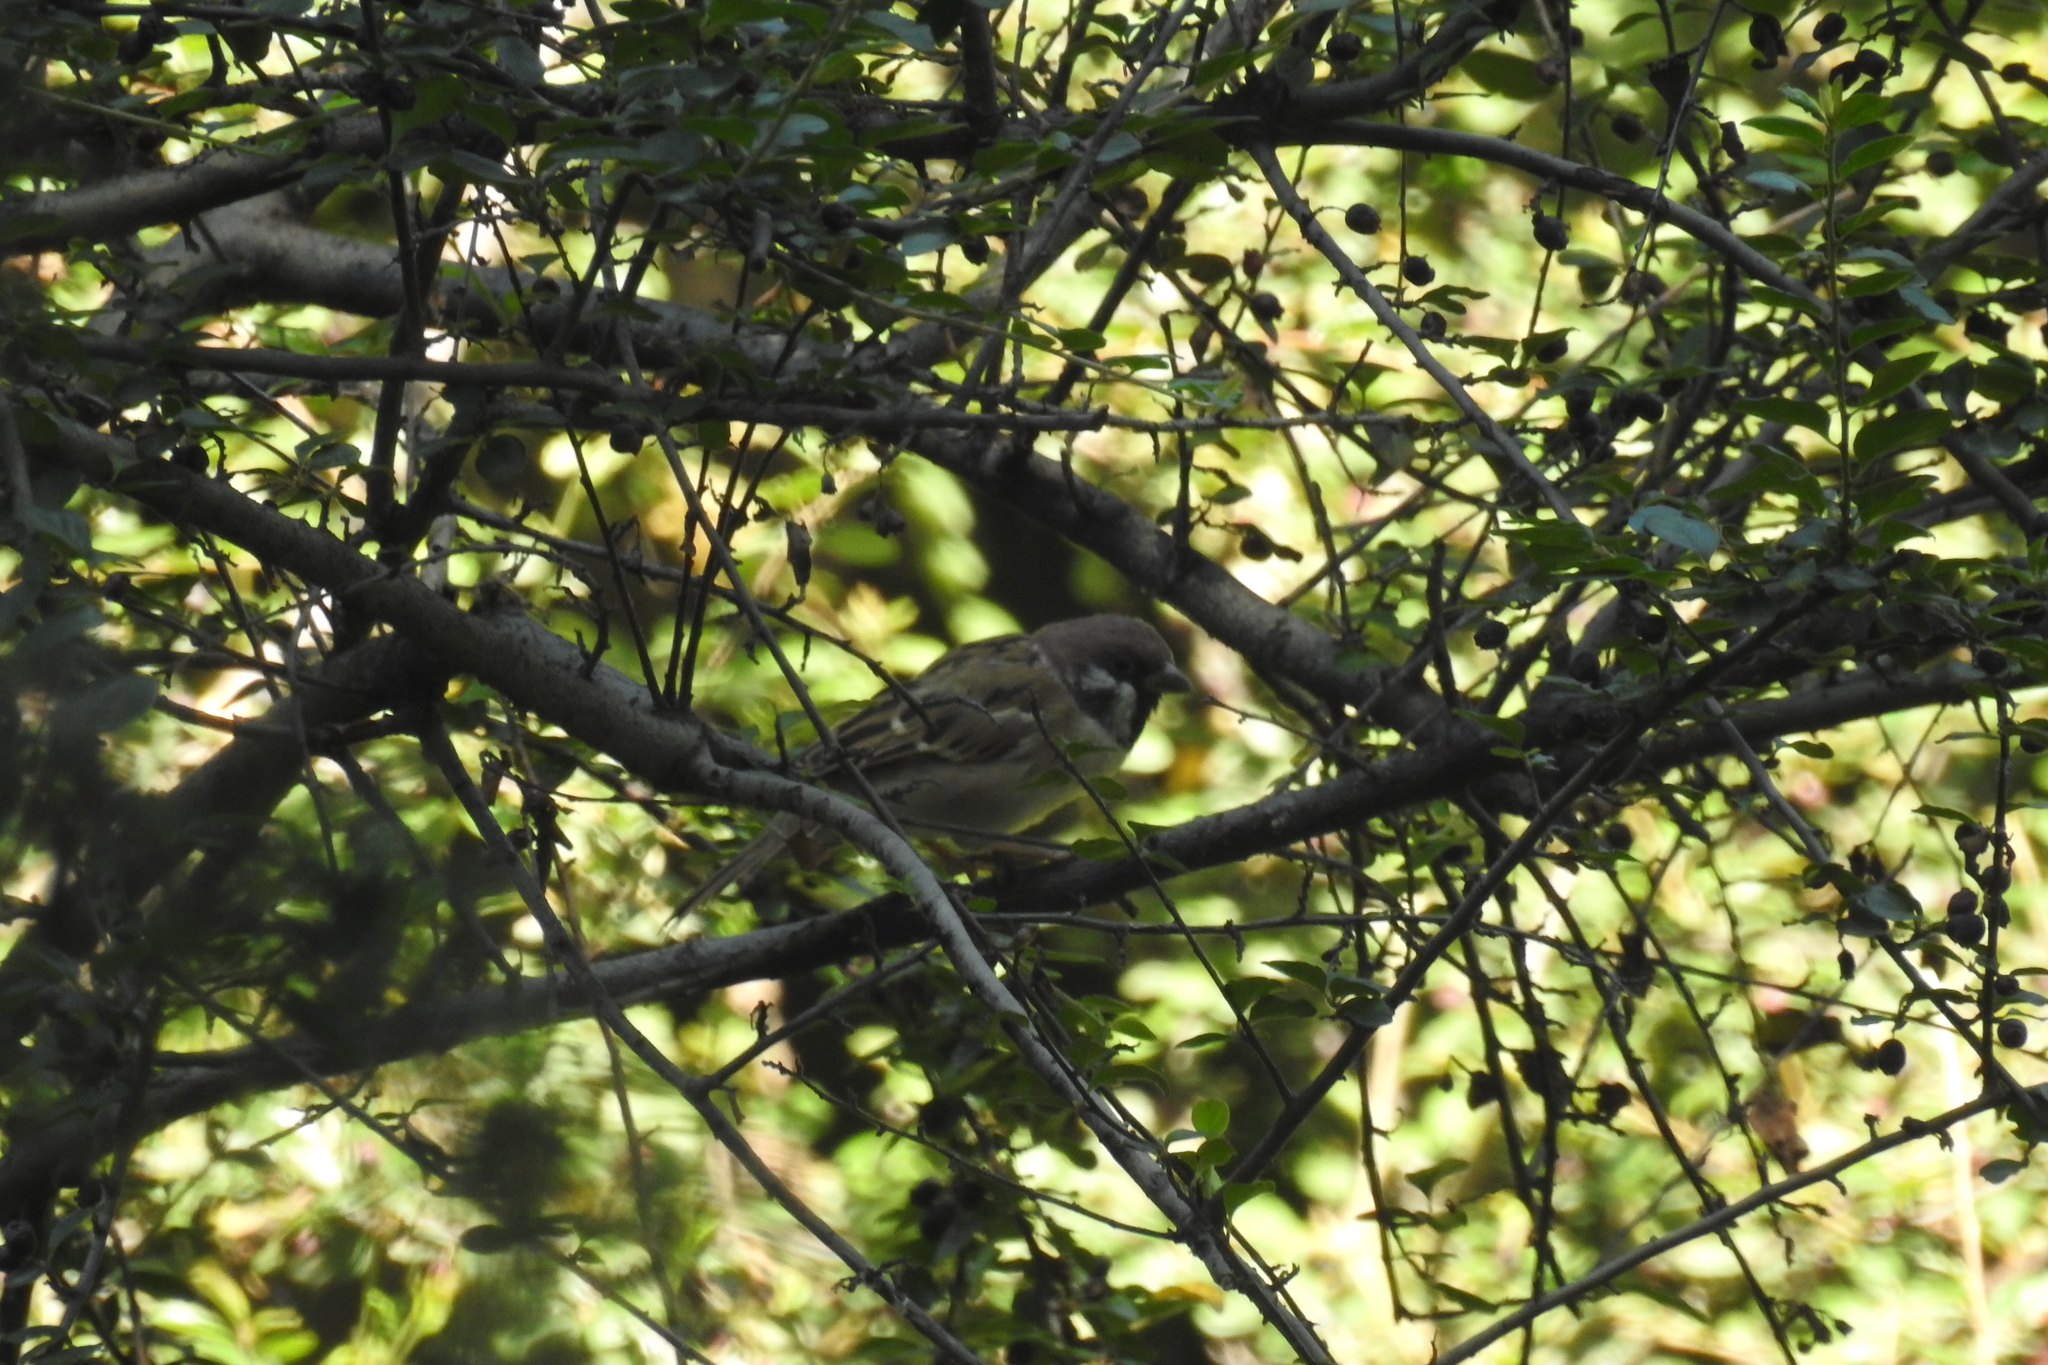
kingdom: Animalia
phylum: Chordata
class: Aves
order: Passeriformes
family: Passeridae
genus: Passer
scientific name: Passer montanus
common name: Eurasian tree sparrow
